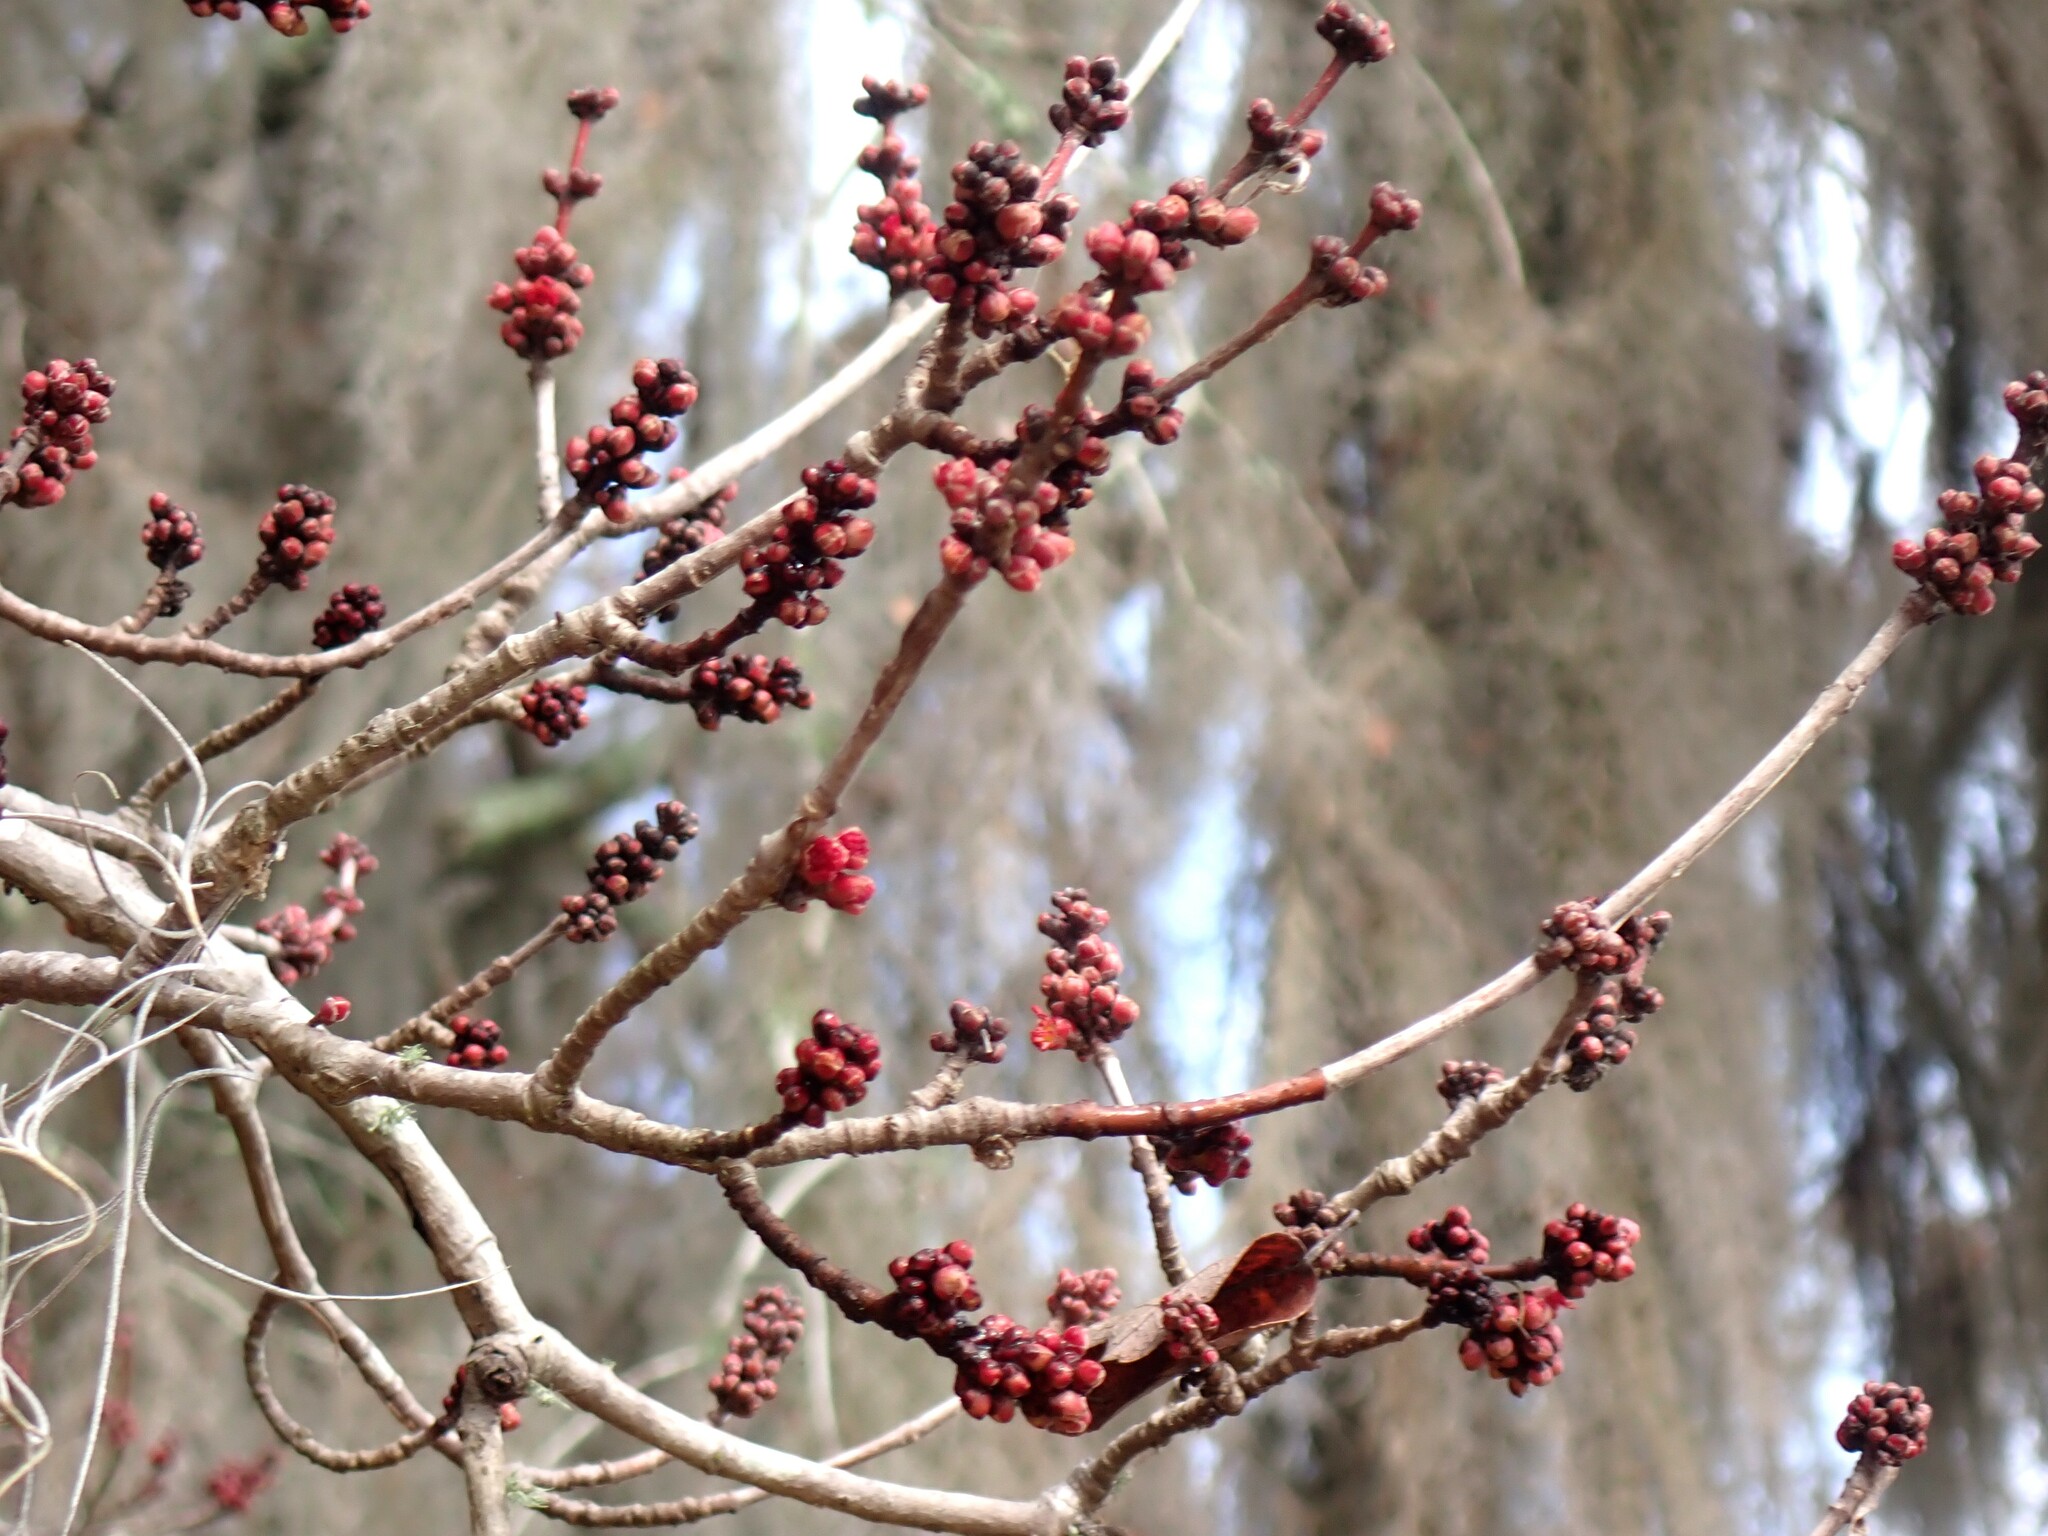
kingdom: Plantae
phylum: Tracheophyta
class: Magnoliopsida
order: Sapindales
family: Sapindaceae
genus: Acer
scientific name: Acer rubrum
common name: Red maple
